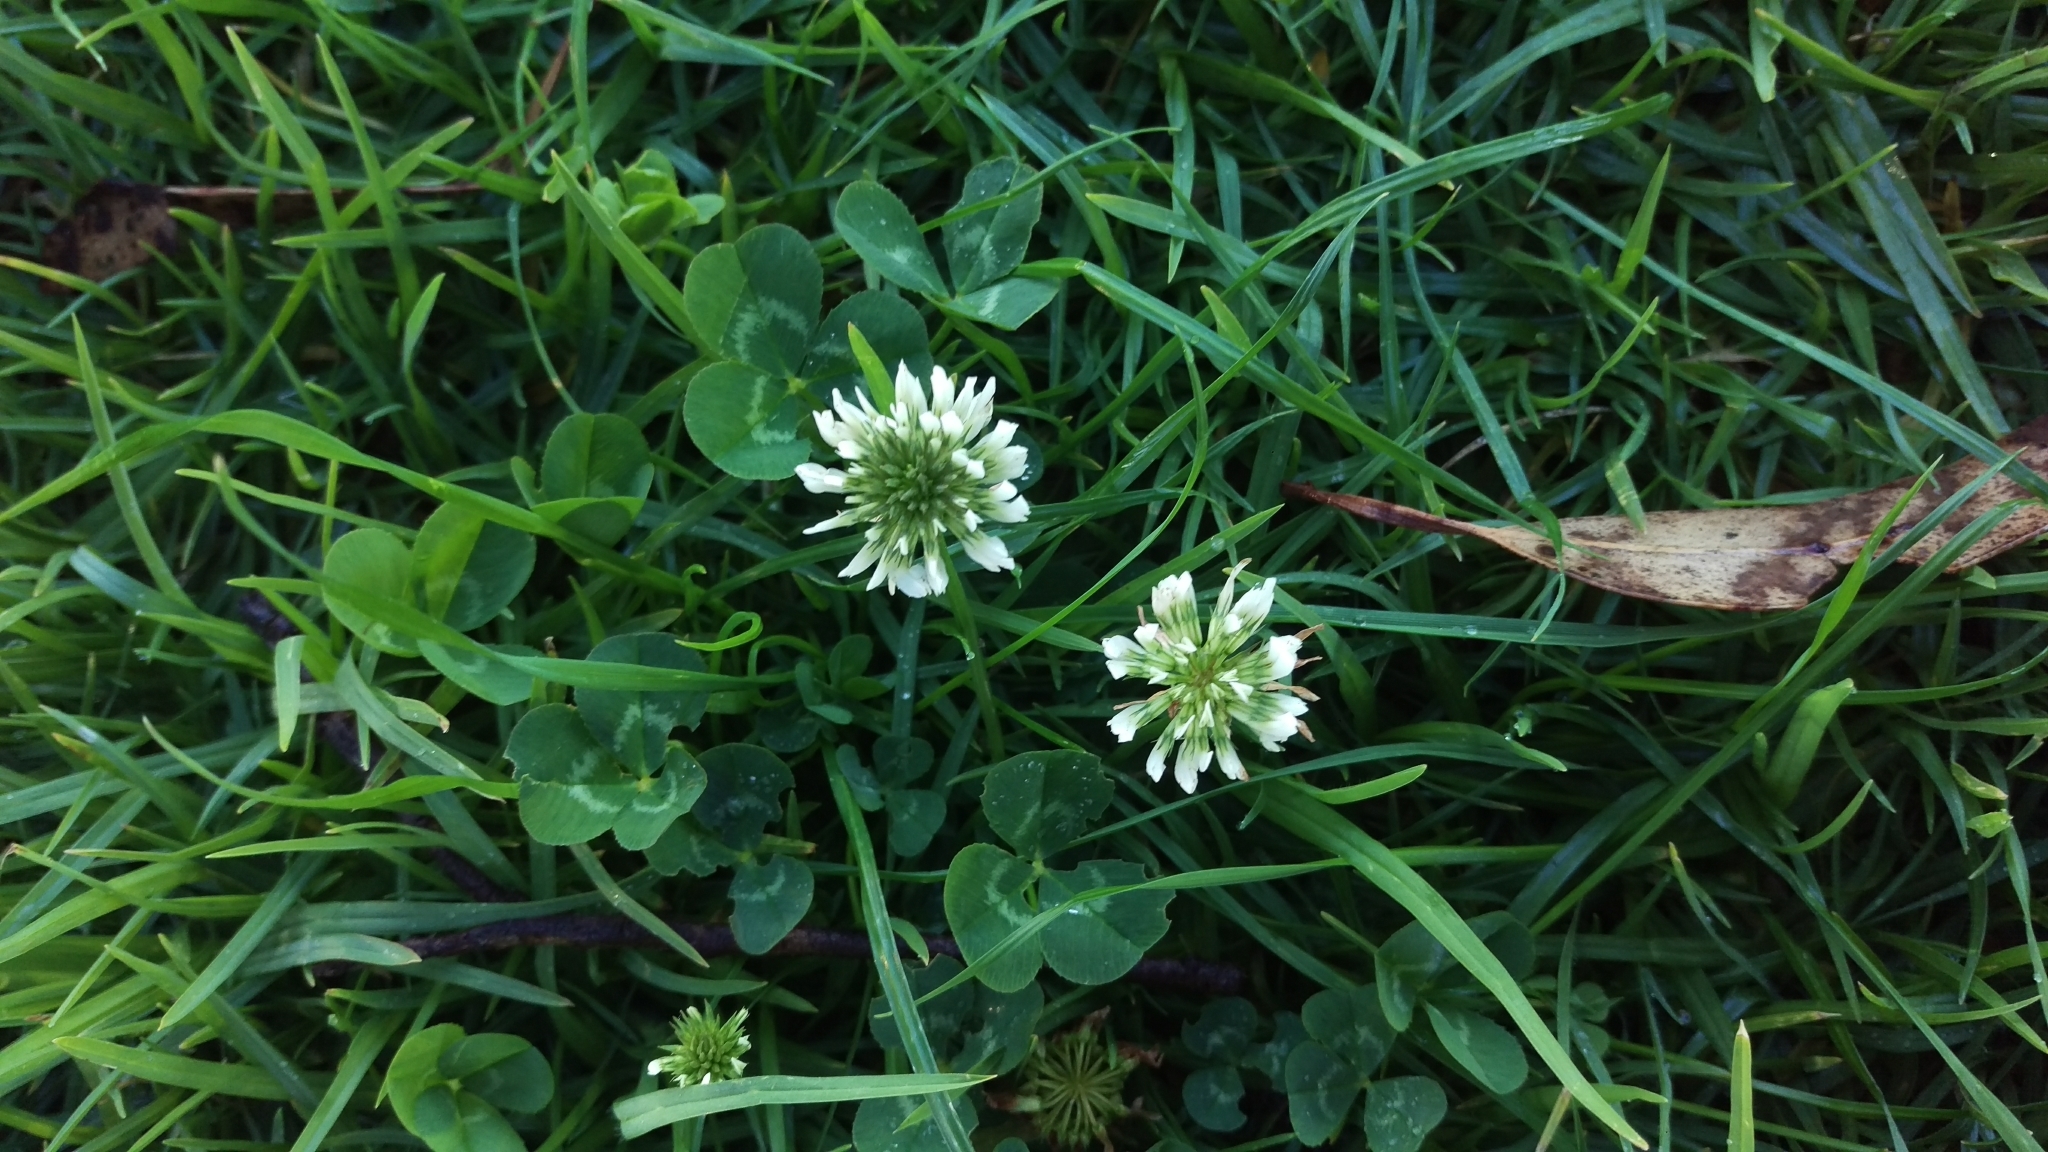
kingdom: Plantae
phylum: Tracheophyta
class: Magnoliopsida
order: Fabales
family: Fabaceae
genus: Trifolium
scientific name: Trifolium repens
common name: White clover
